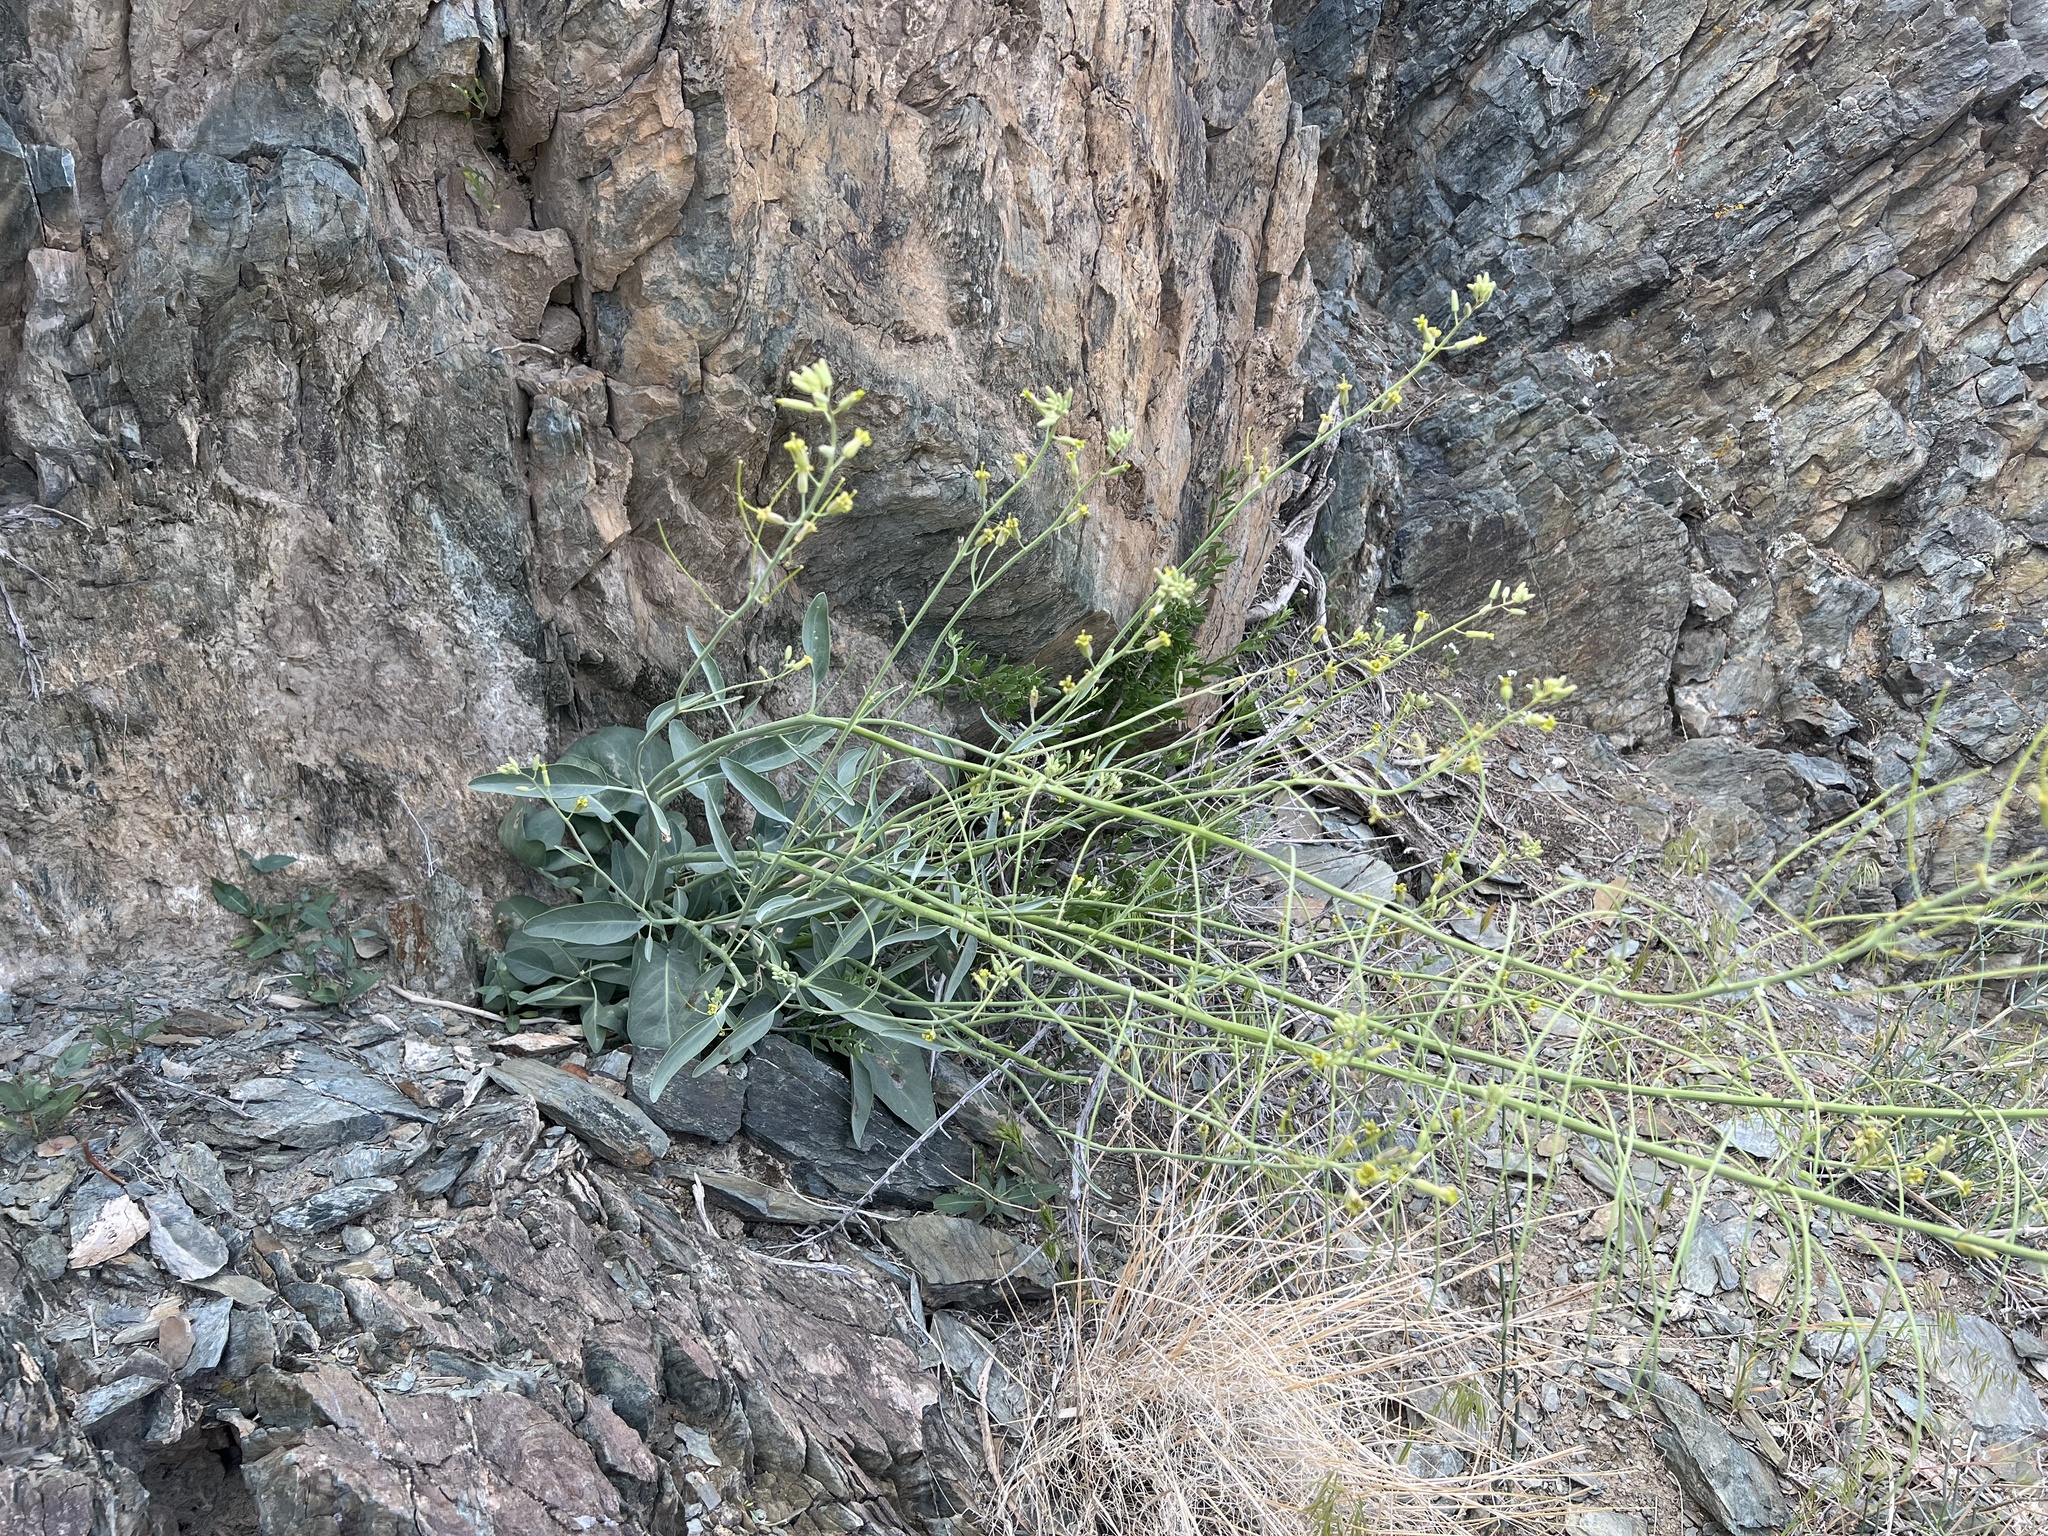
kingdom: Plantae
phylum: Tracheophyta
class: Magnoliopsida
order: Brassicales
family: Brassicaceae
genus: Streptanthus
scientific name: Streptanthus glaucus
